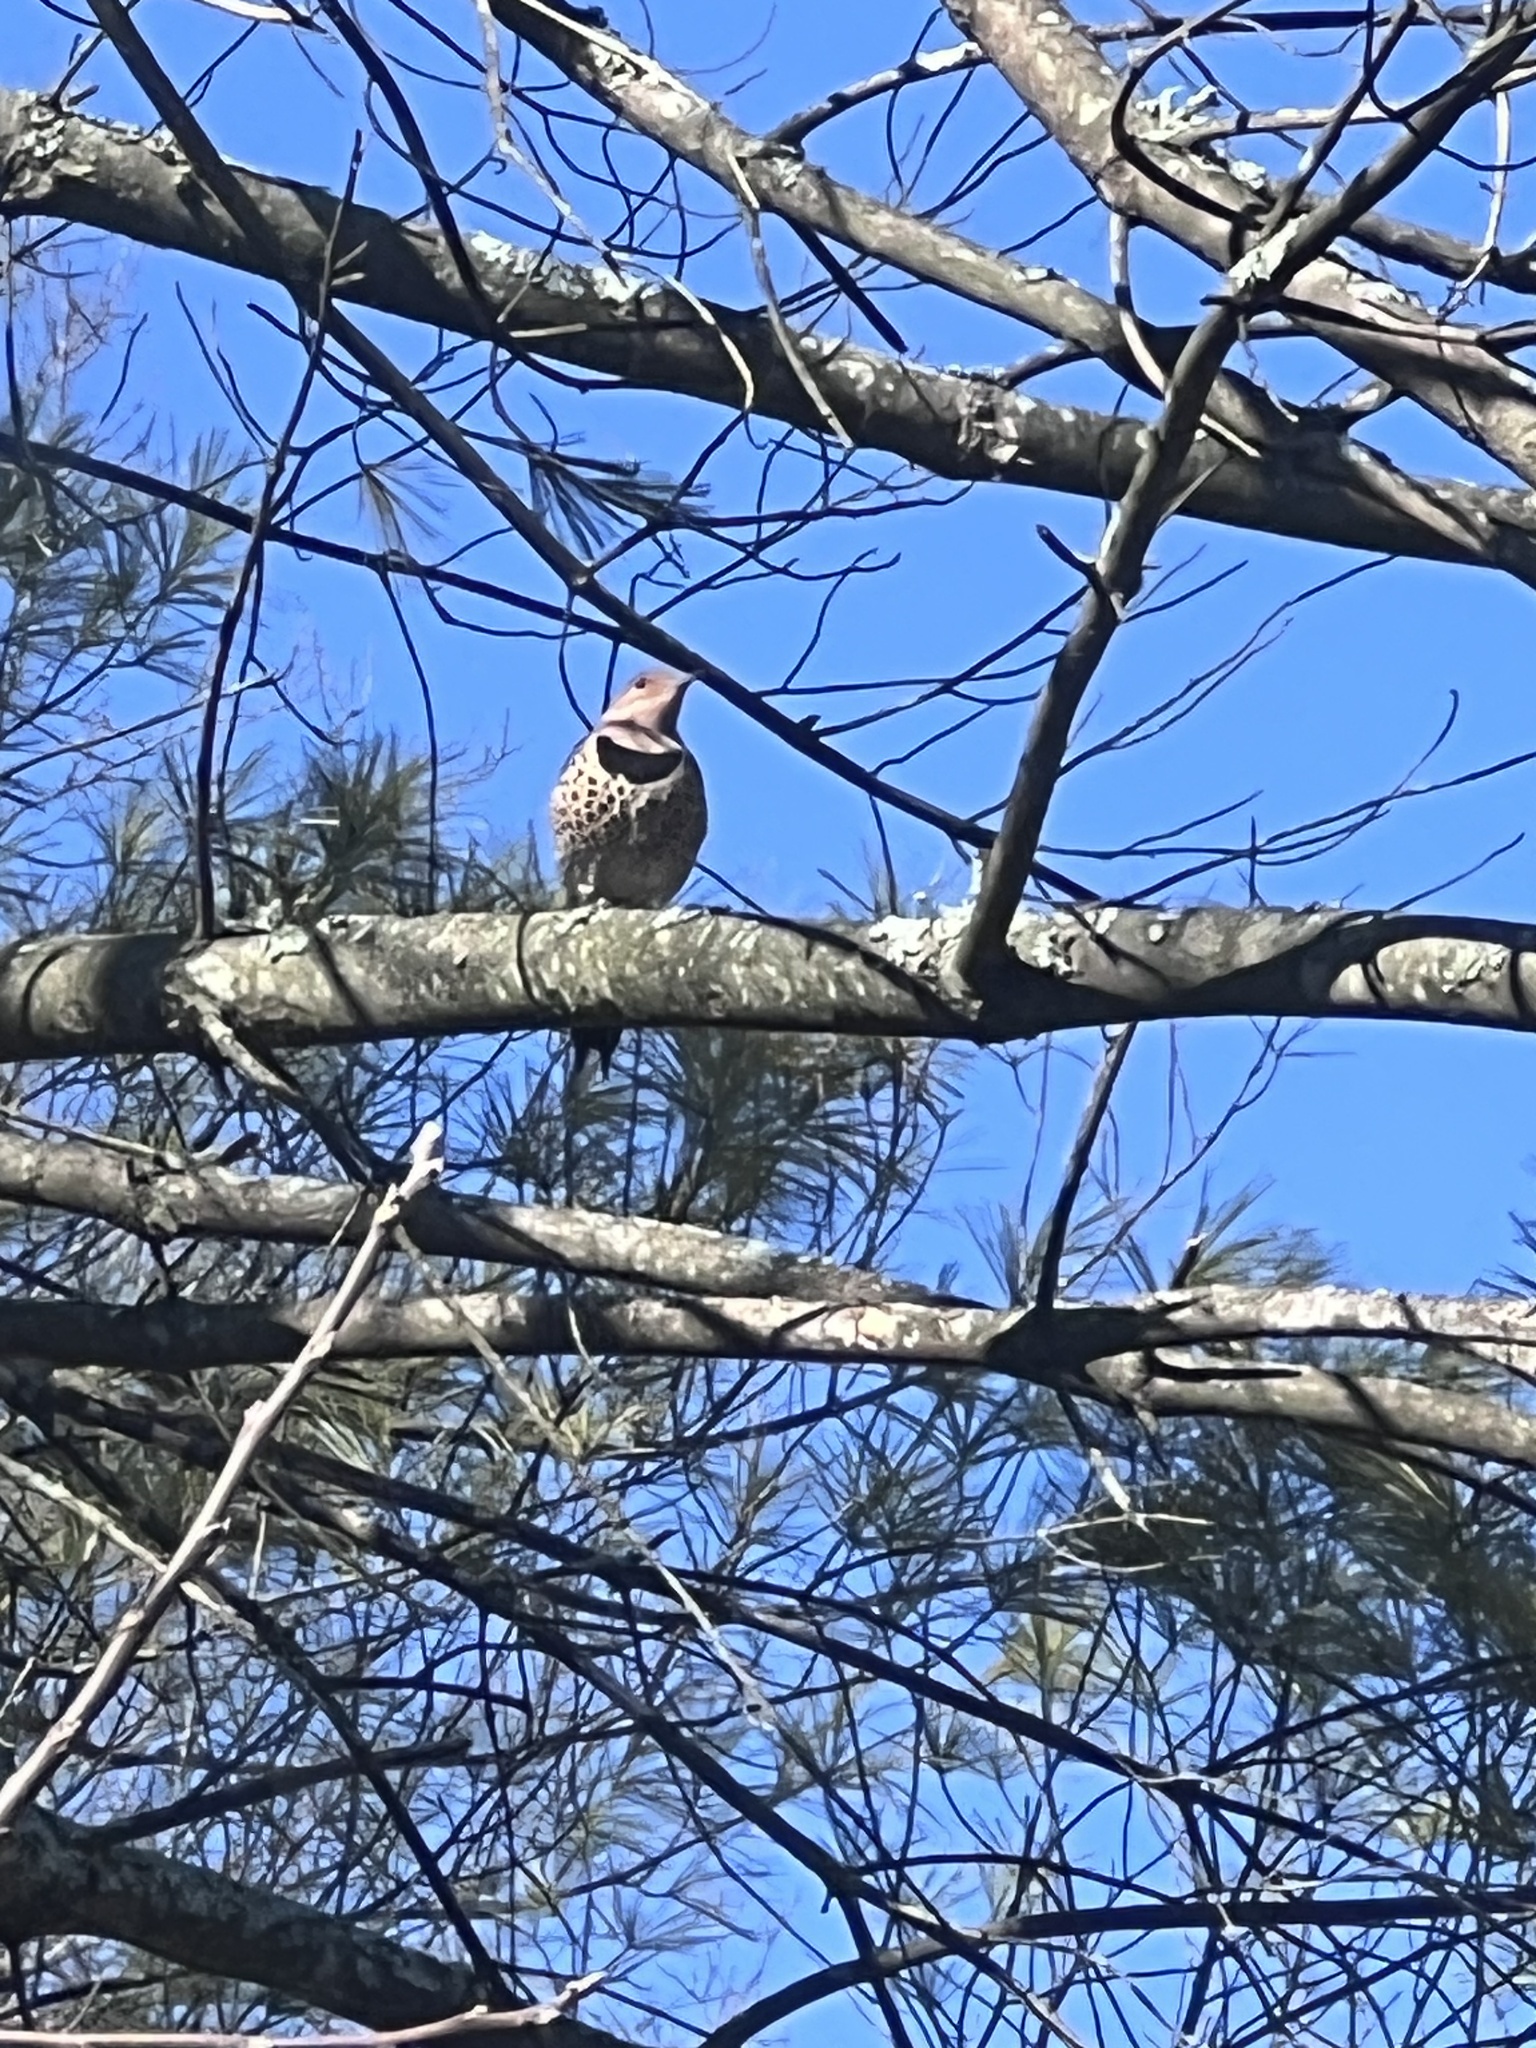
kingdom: Animalia
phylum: Chordata
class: Aves
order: Piciformes
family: Picidae
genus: Colaptes
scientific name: Colaptes auratus
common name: Northern flicker
